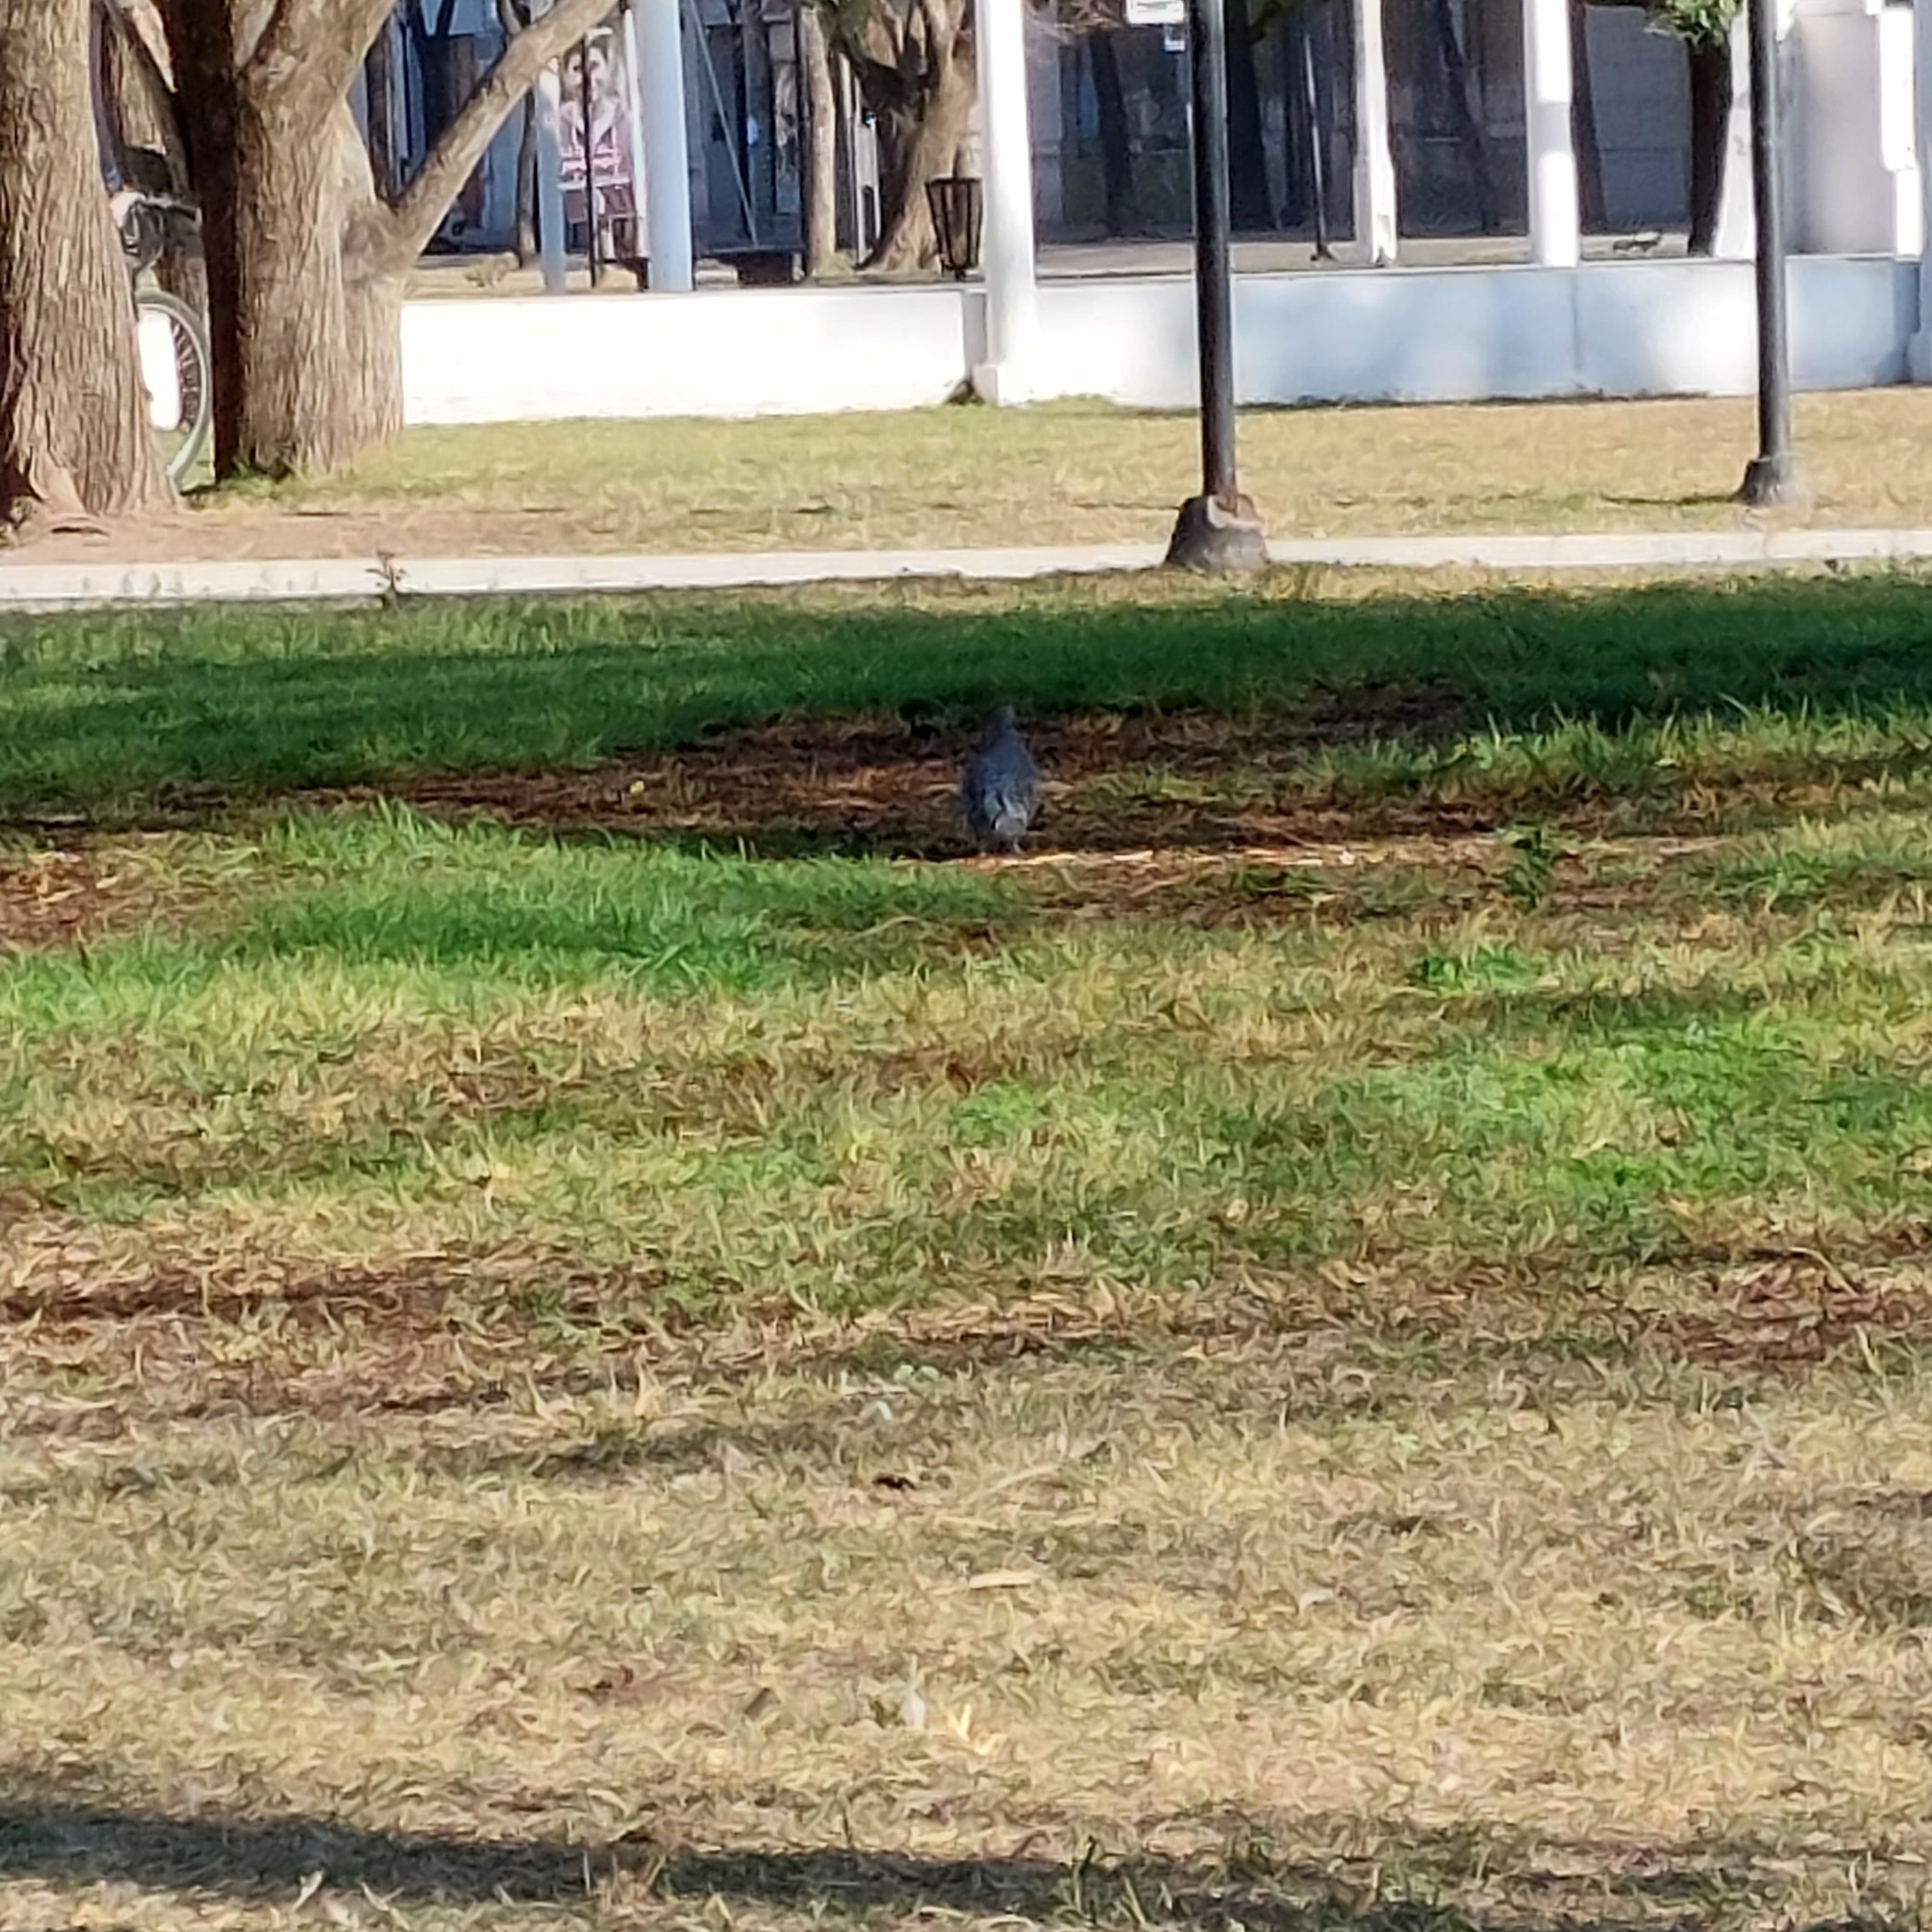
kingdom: Animalia
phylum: Chordata
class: Aves
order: Columbiformes
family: Columbidae
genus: Patagioenas
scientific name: Patagioenas picazuro
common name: Picazuro pigeon
